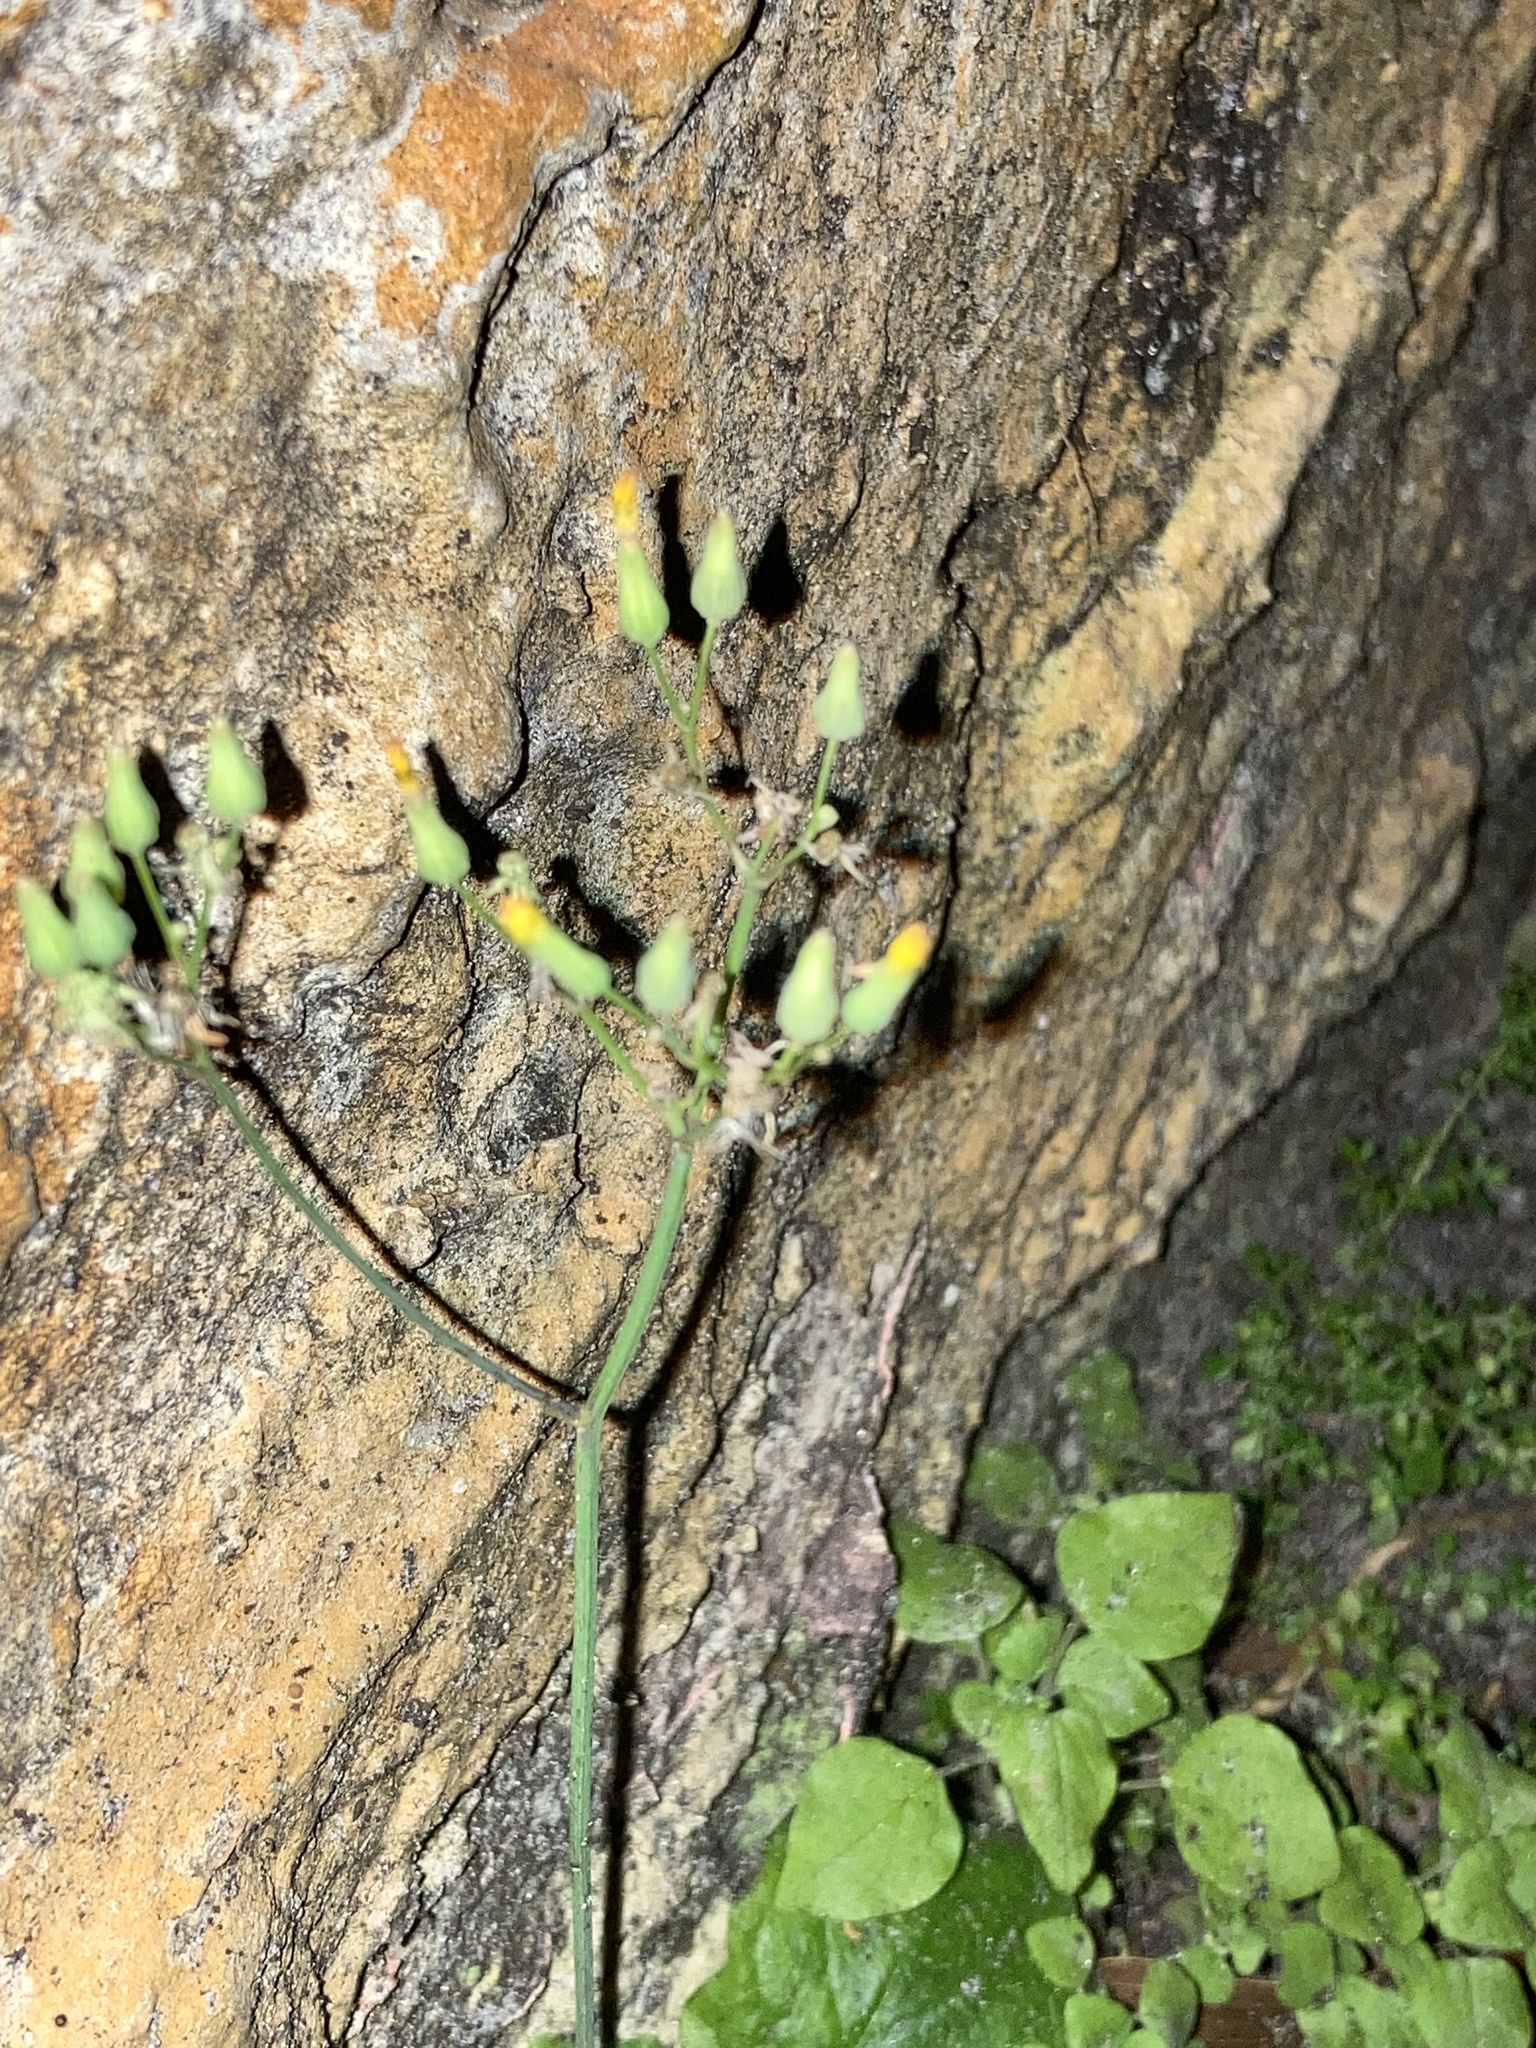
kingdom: Plantae
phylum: Tracheophyta
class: Magnoliopsida
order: Asterales
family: Asteraceae
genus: Youngia
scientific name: Youngia japonica
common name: Oriental false hawksbeard
